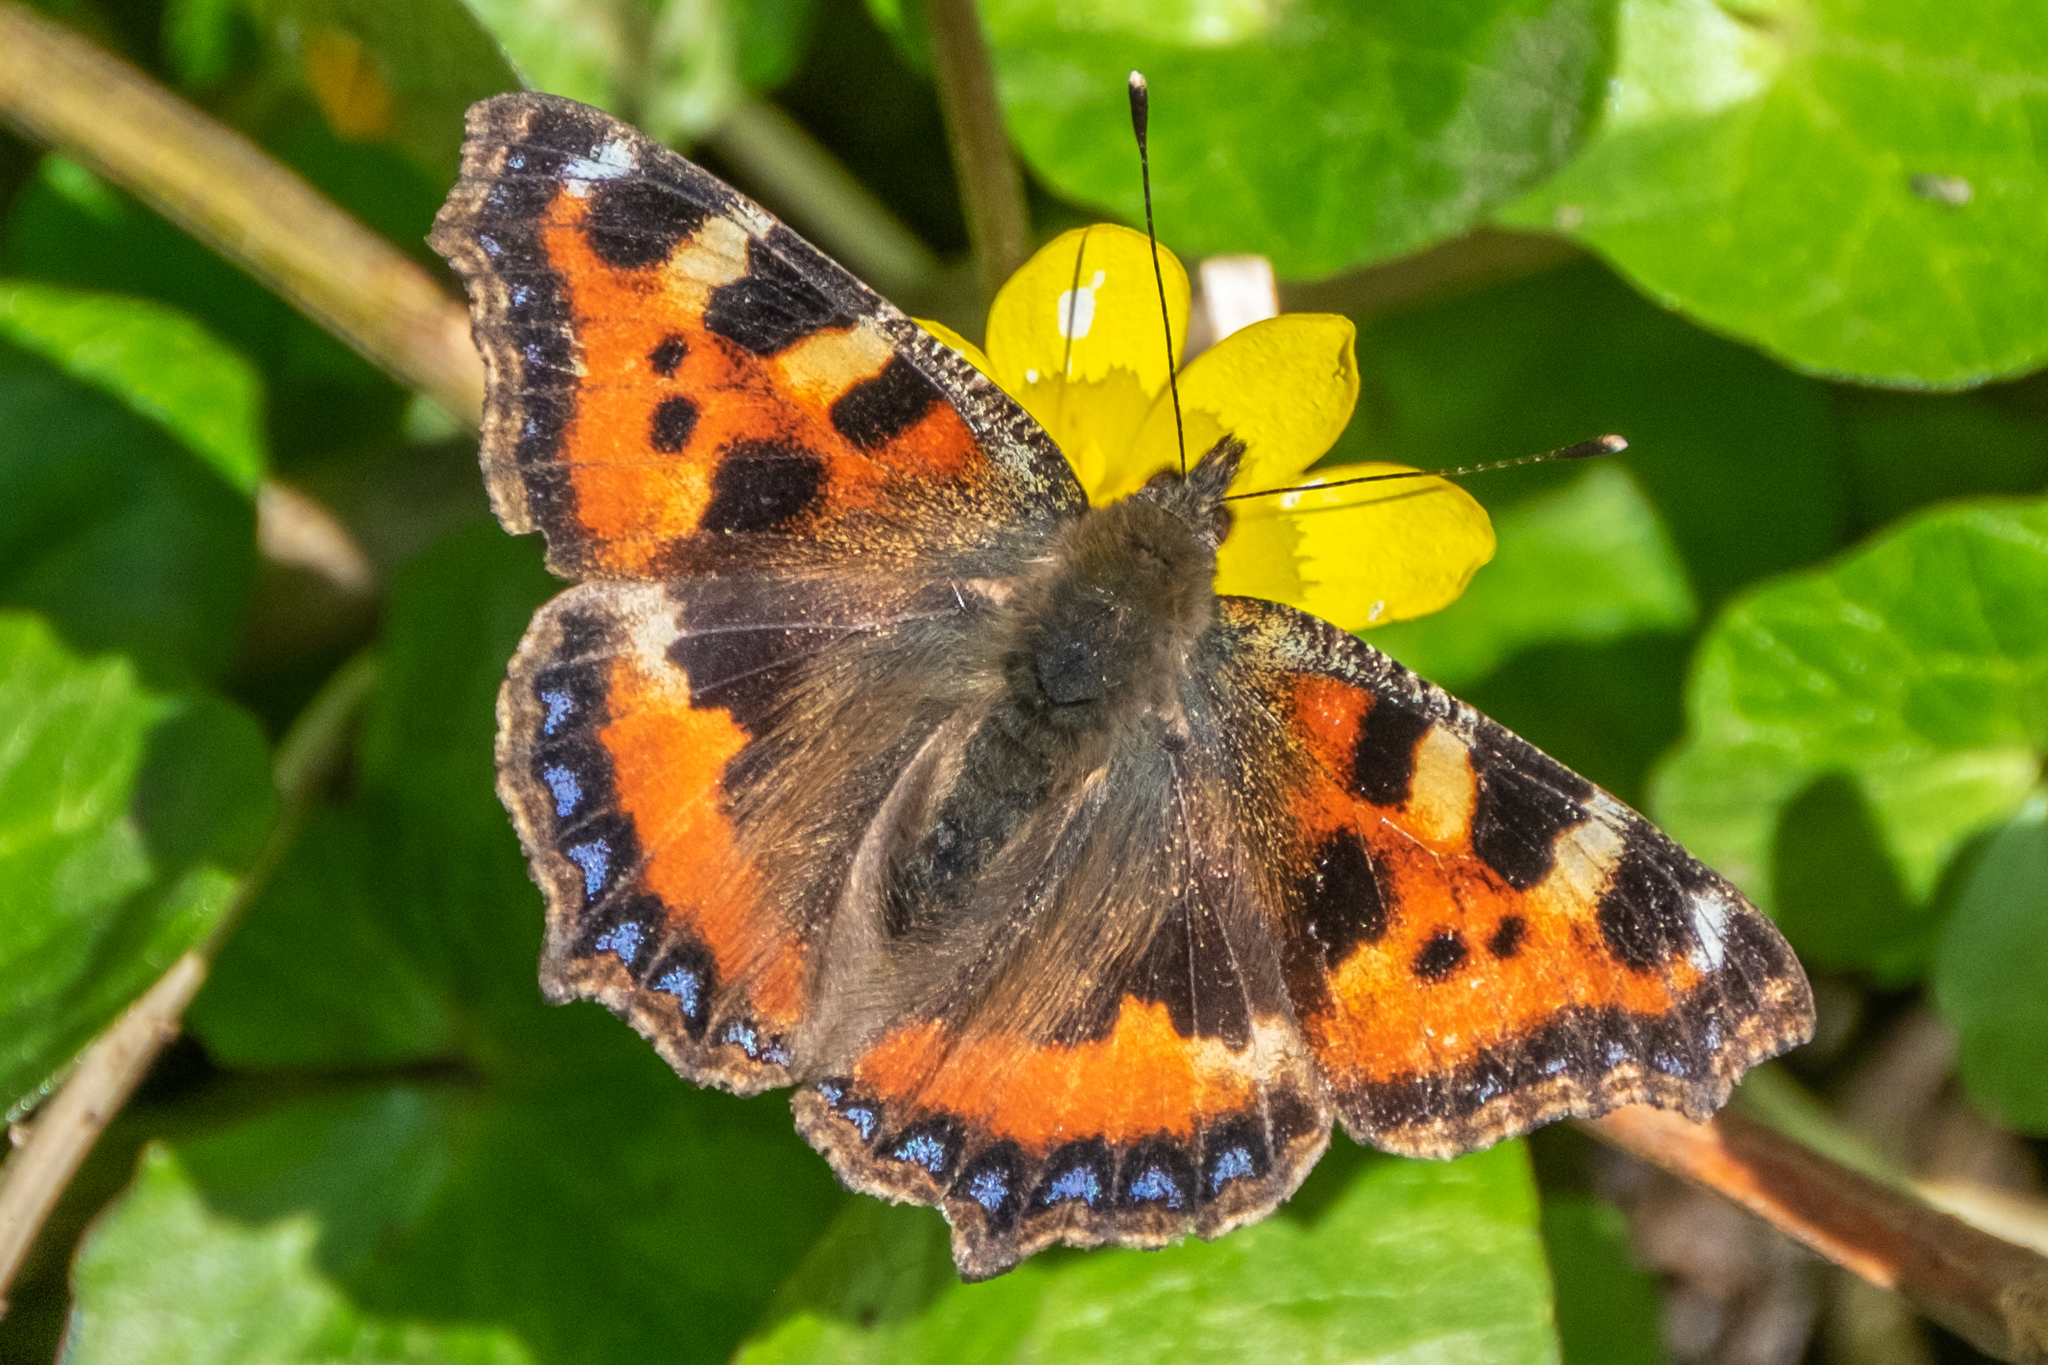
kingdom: Animalia
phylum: Arthropoda
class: Insecta
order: Lepidoptera
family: Nymphalidae
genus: Aglais
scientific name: Aglais urticae
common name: Small tortoiseshell
